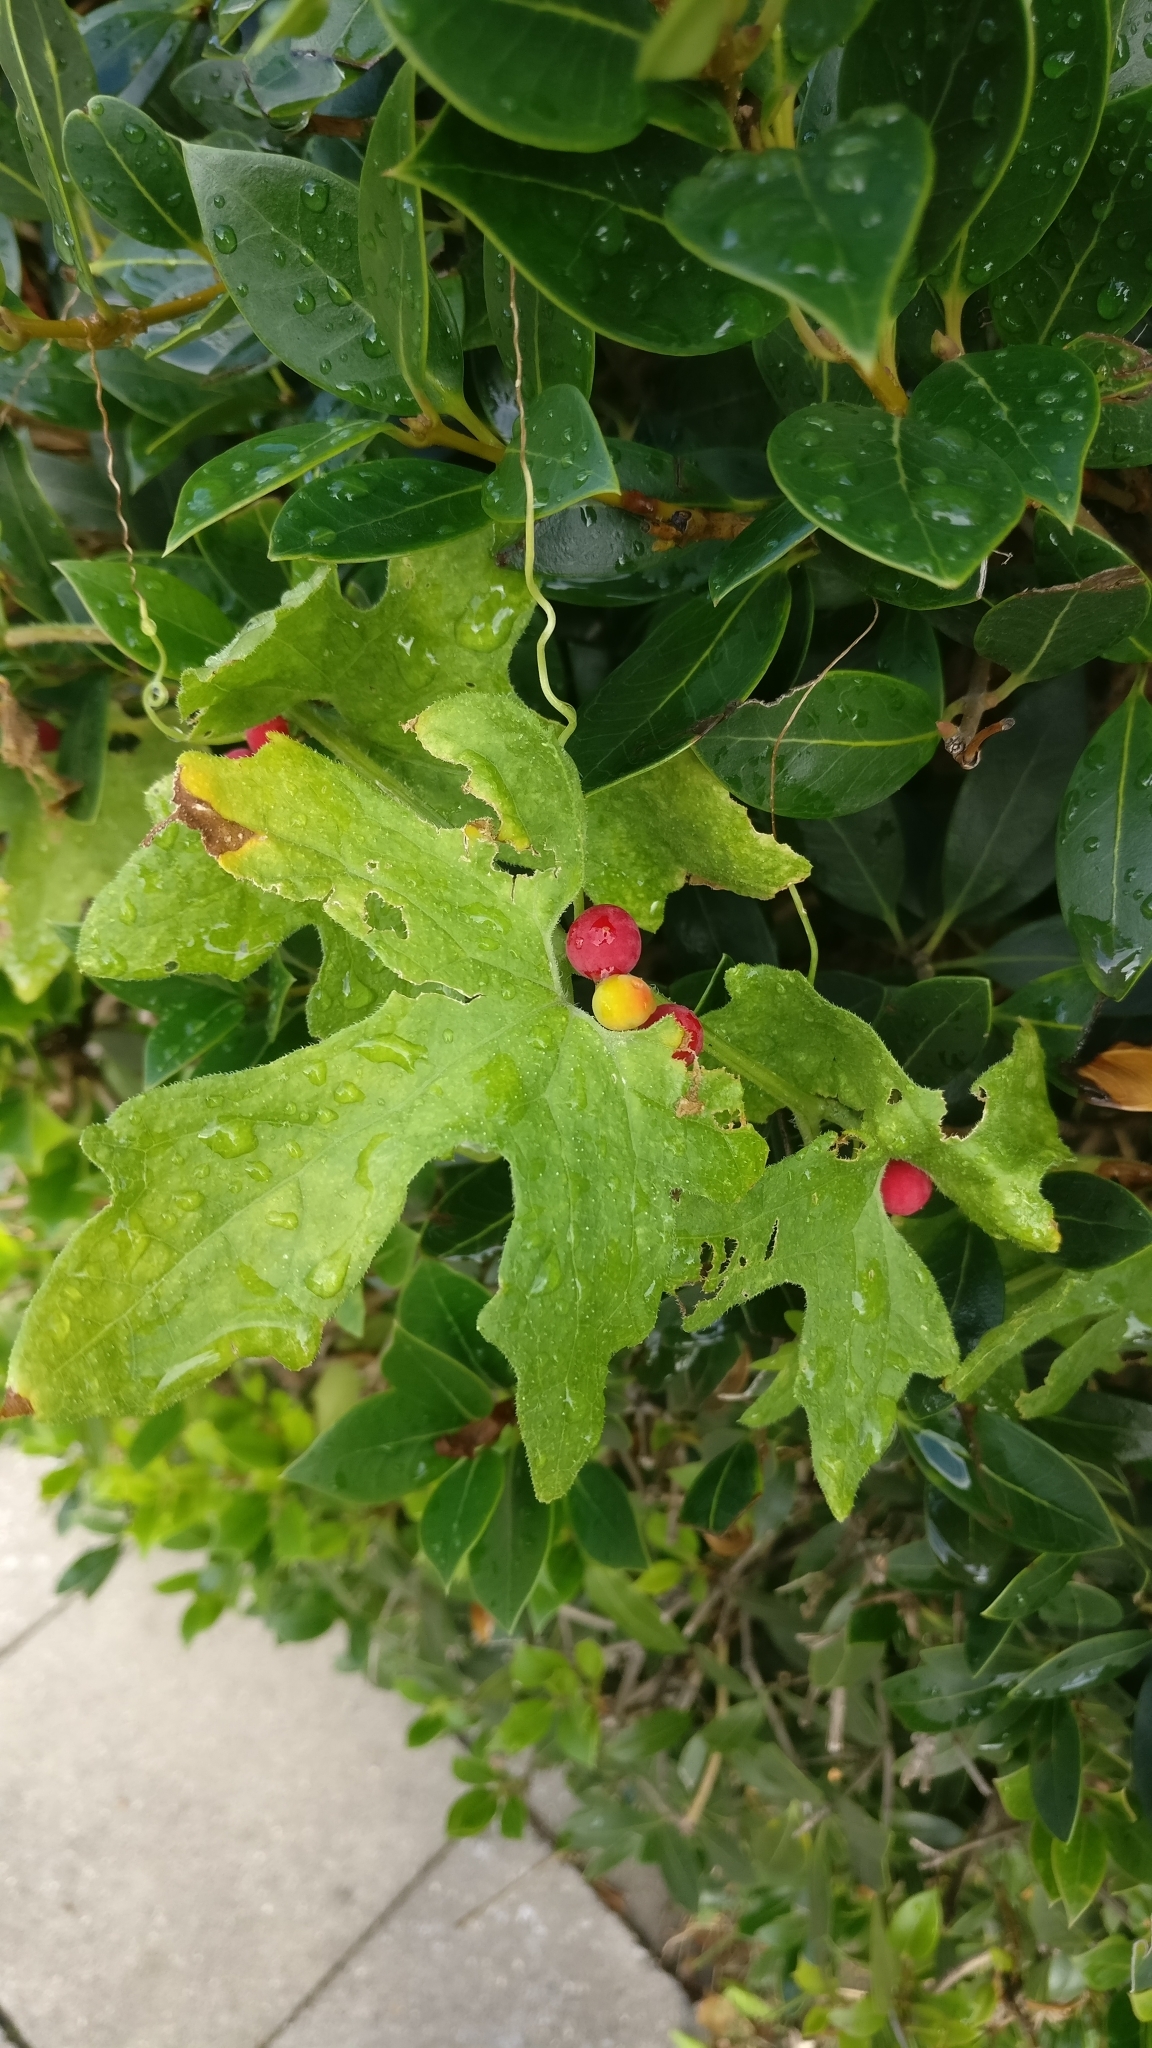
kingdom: Plantae
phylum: Tracheophyta
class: Magnoliopsida
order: Cucurbitales
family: Cucurbitaceae
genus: Bryonia
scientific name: Bryonia cretica
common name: Cretan bryony
